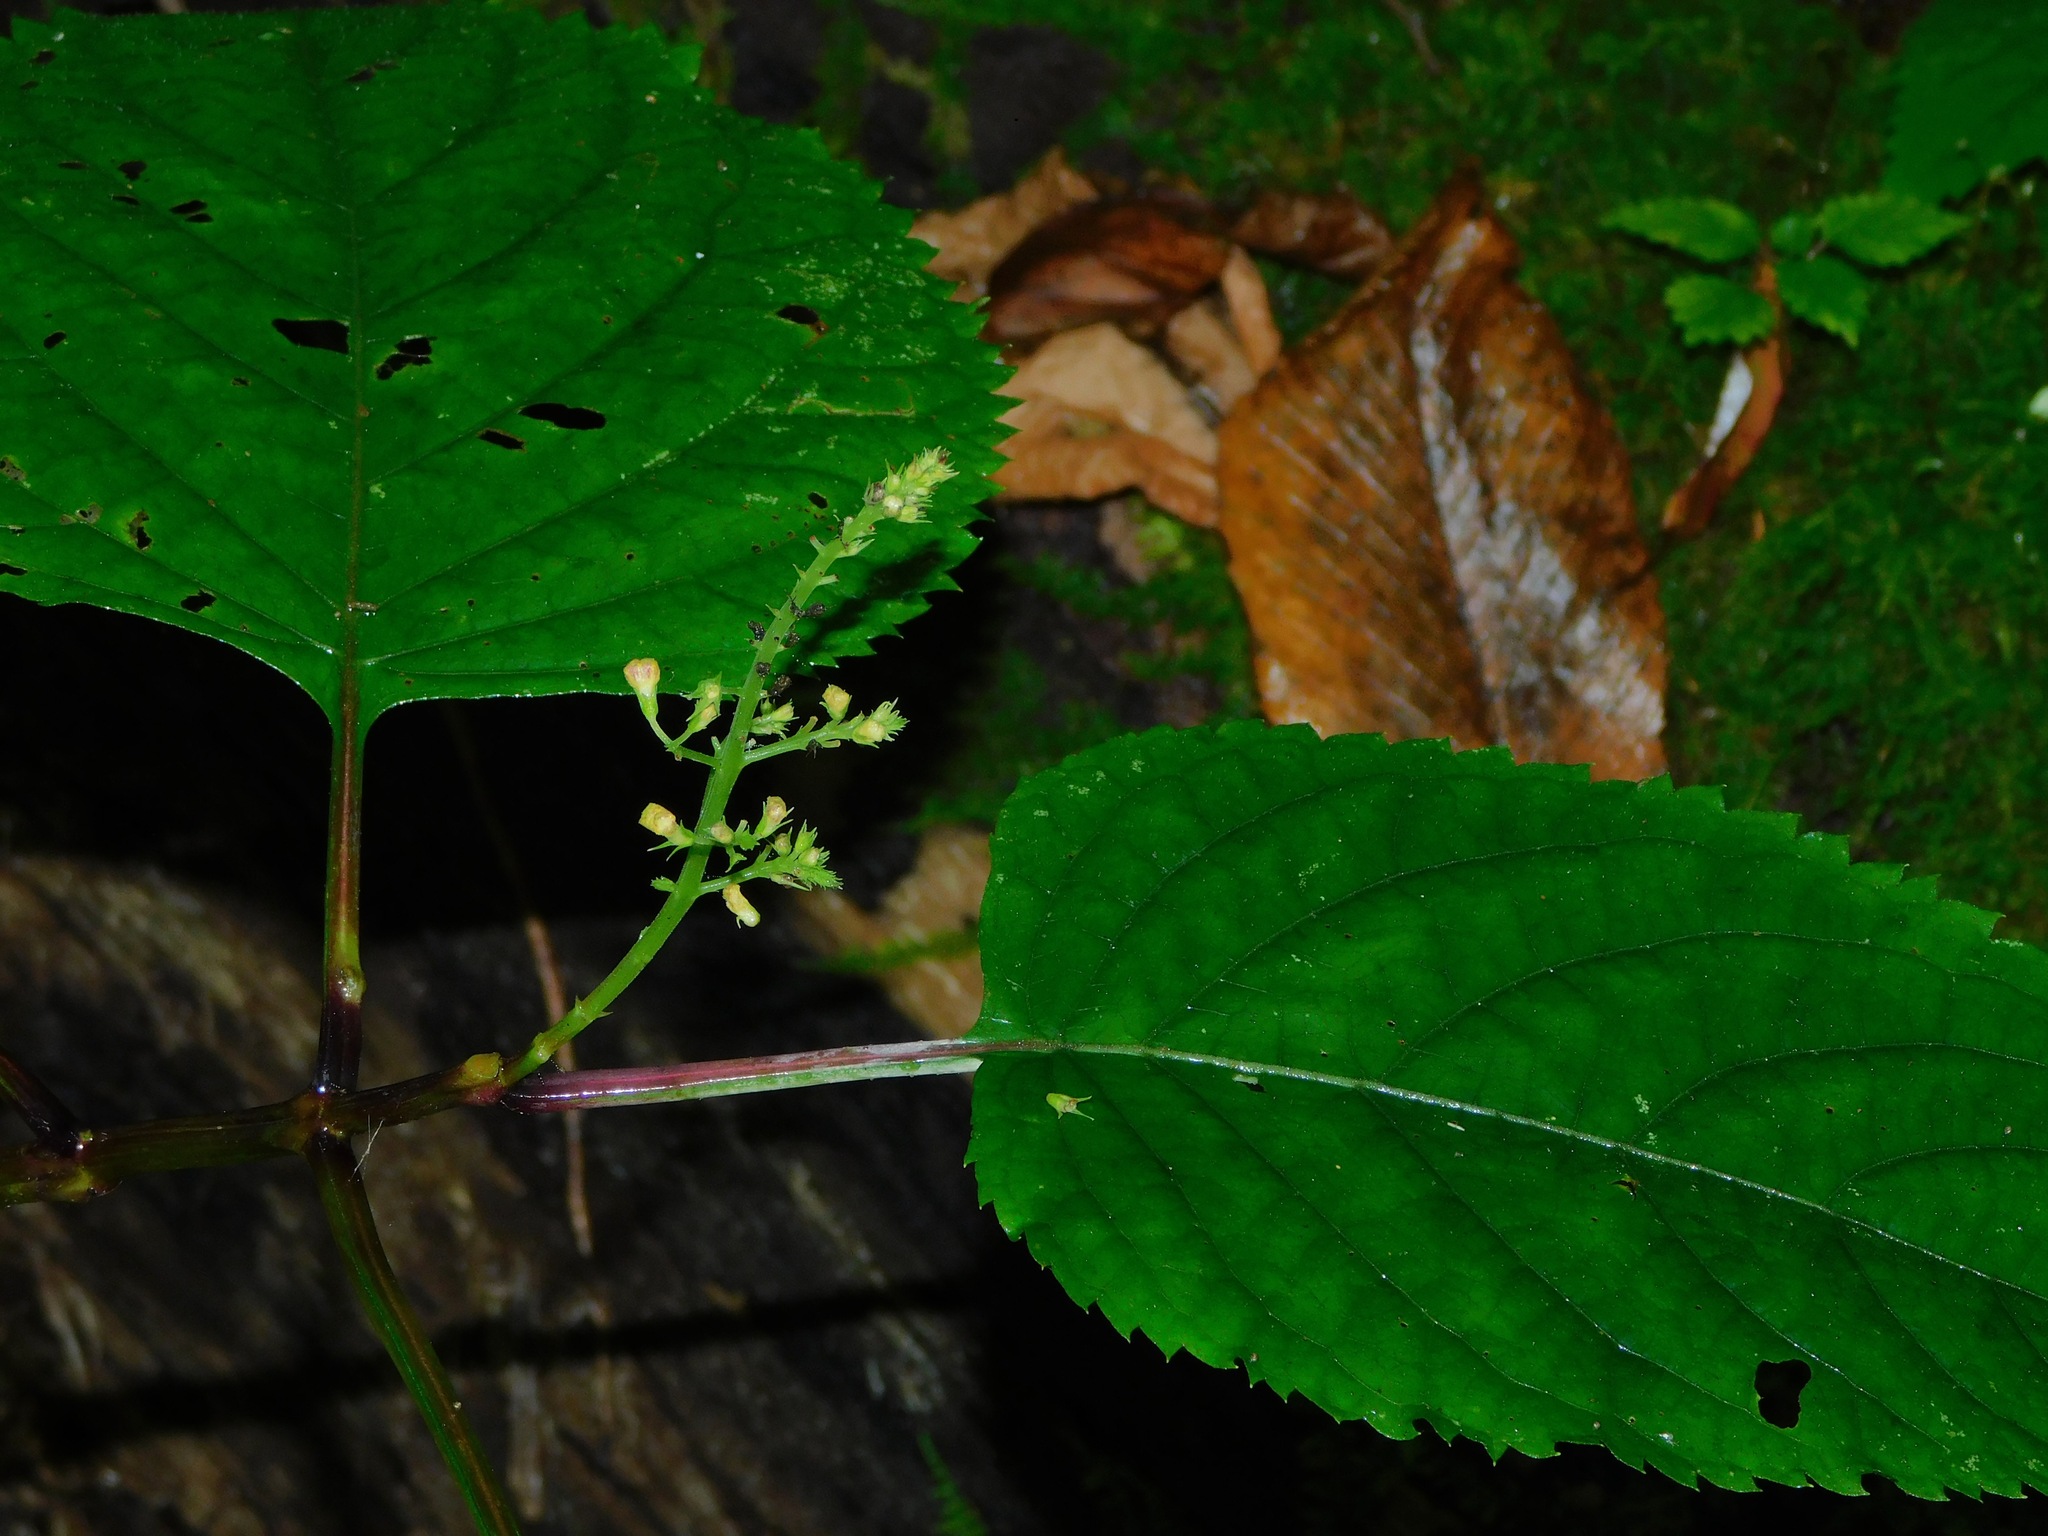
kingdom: Plantae
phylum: Tracheophyta
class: Magnoliopsida
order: Lamiales
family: Lamiaceae
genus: Collinsonia
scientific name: Collinsonia canadensis
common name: Northern horsebalm
